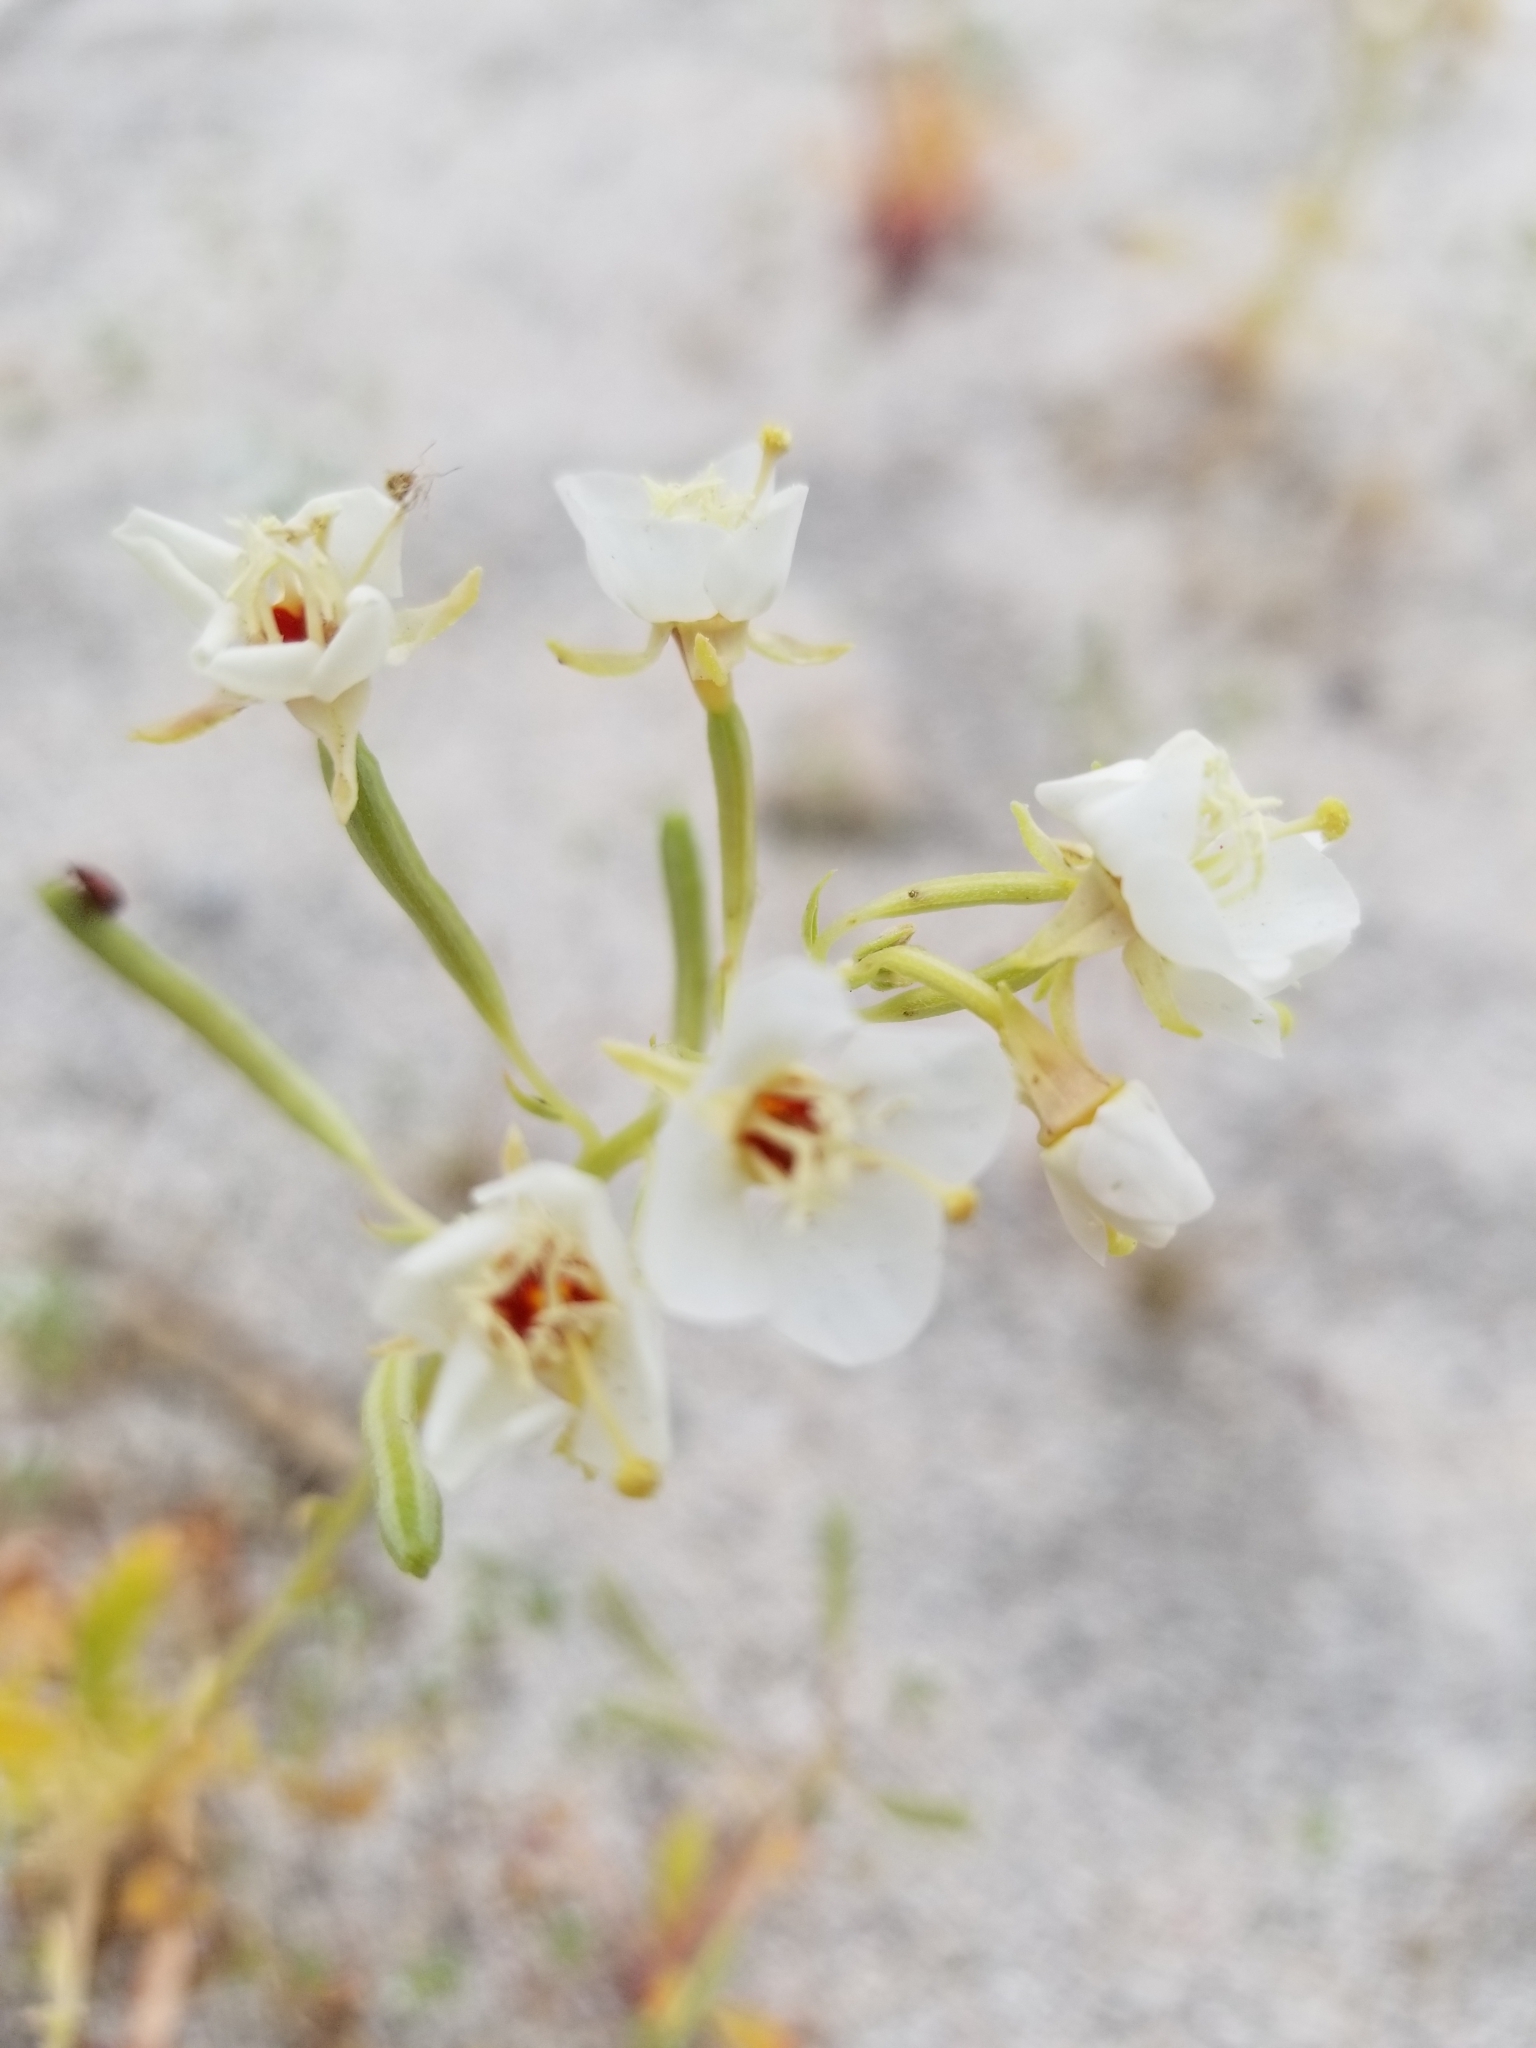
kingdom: Plantae
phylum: Tracheophyta
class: Magnoliopsida
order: Myrtales
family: Onagraceae
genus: Chylismia
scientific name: Chylismia claviformis
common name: Browneyes
